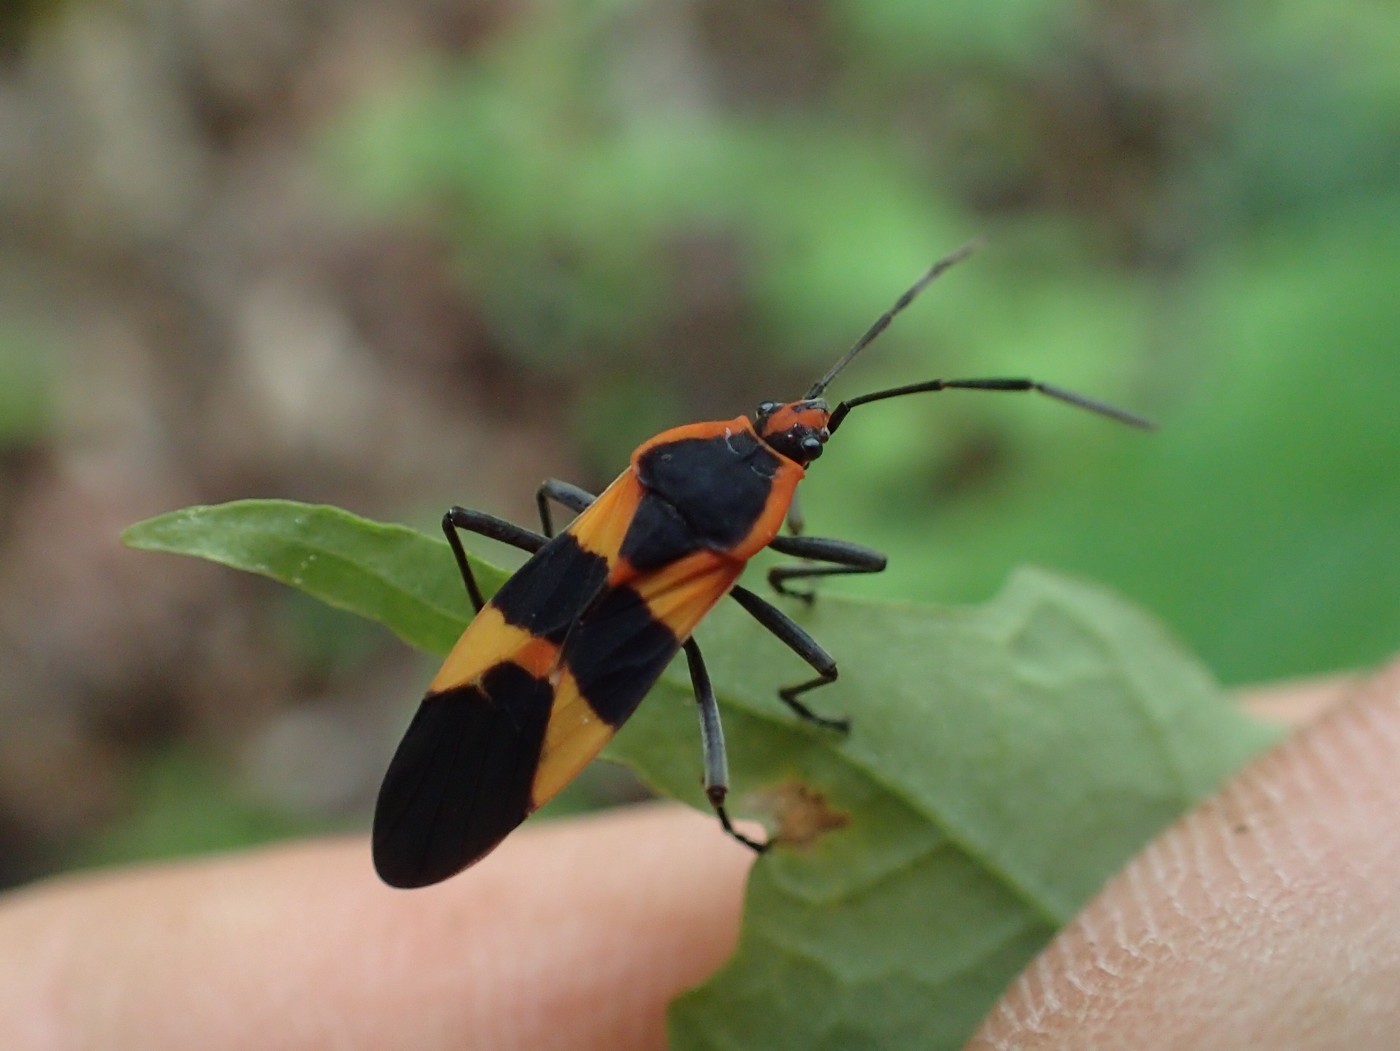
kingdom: Animalia
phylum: Arthropoda
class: Insecta
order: Hemiptera
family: Lygaeidae
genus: Oncopeltus
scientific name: Oncopeltus fasciatus
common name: Large milkweed bug
